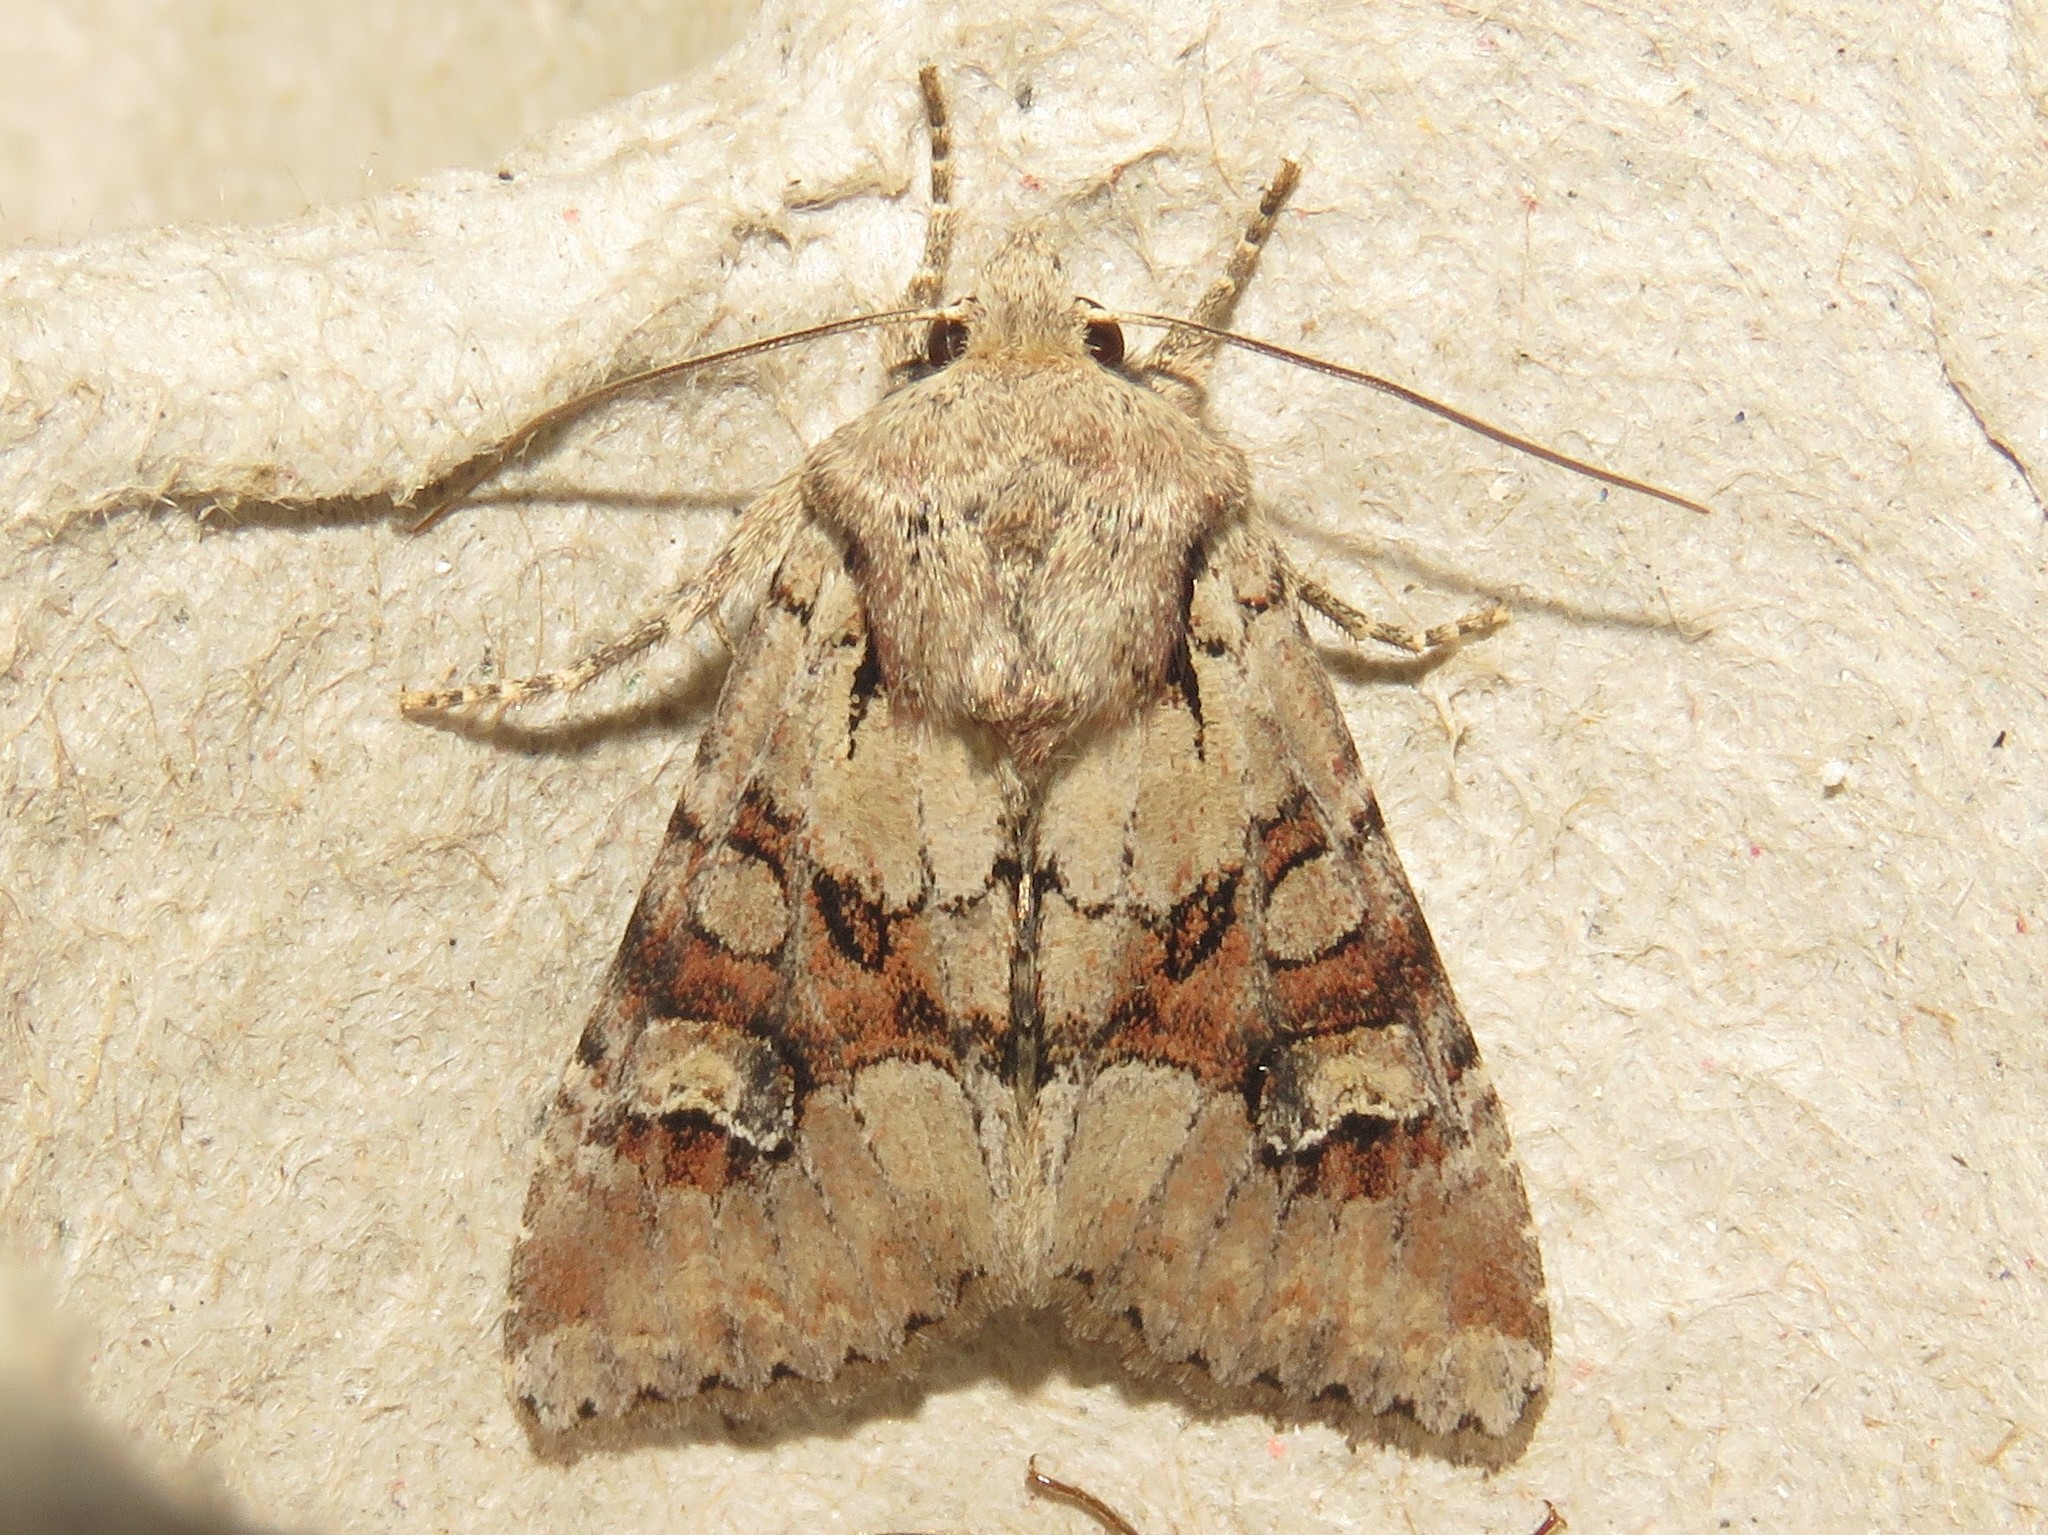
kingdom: Animalia
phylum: Arthropoda
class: Insecta
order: Lepidoptera
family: Noctuidae
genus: Apamea
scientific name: Apamea sordens
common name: Rustic shoulder-knot
